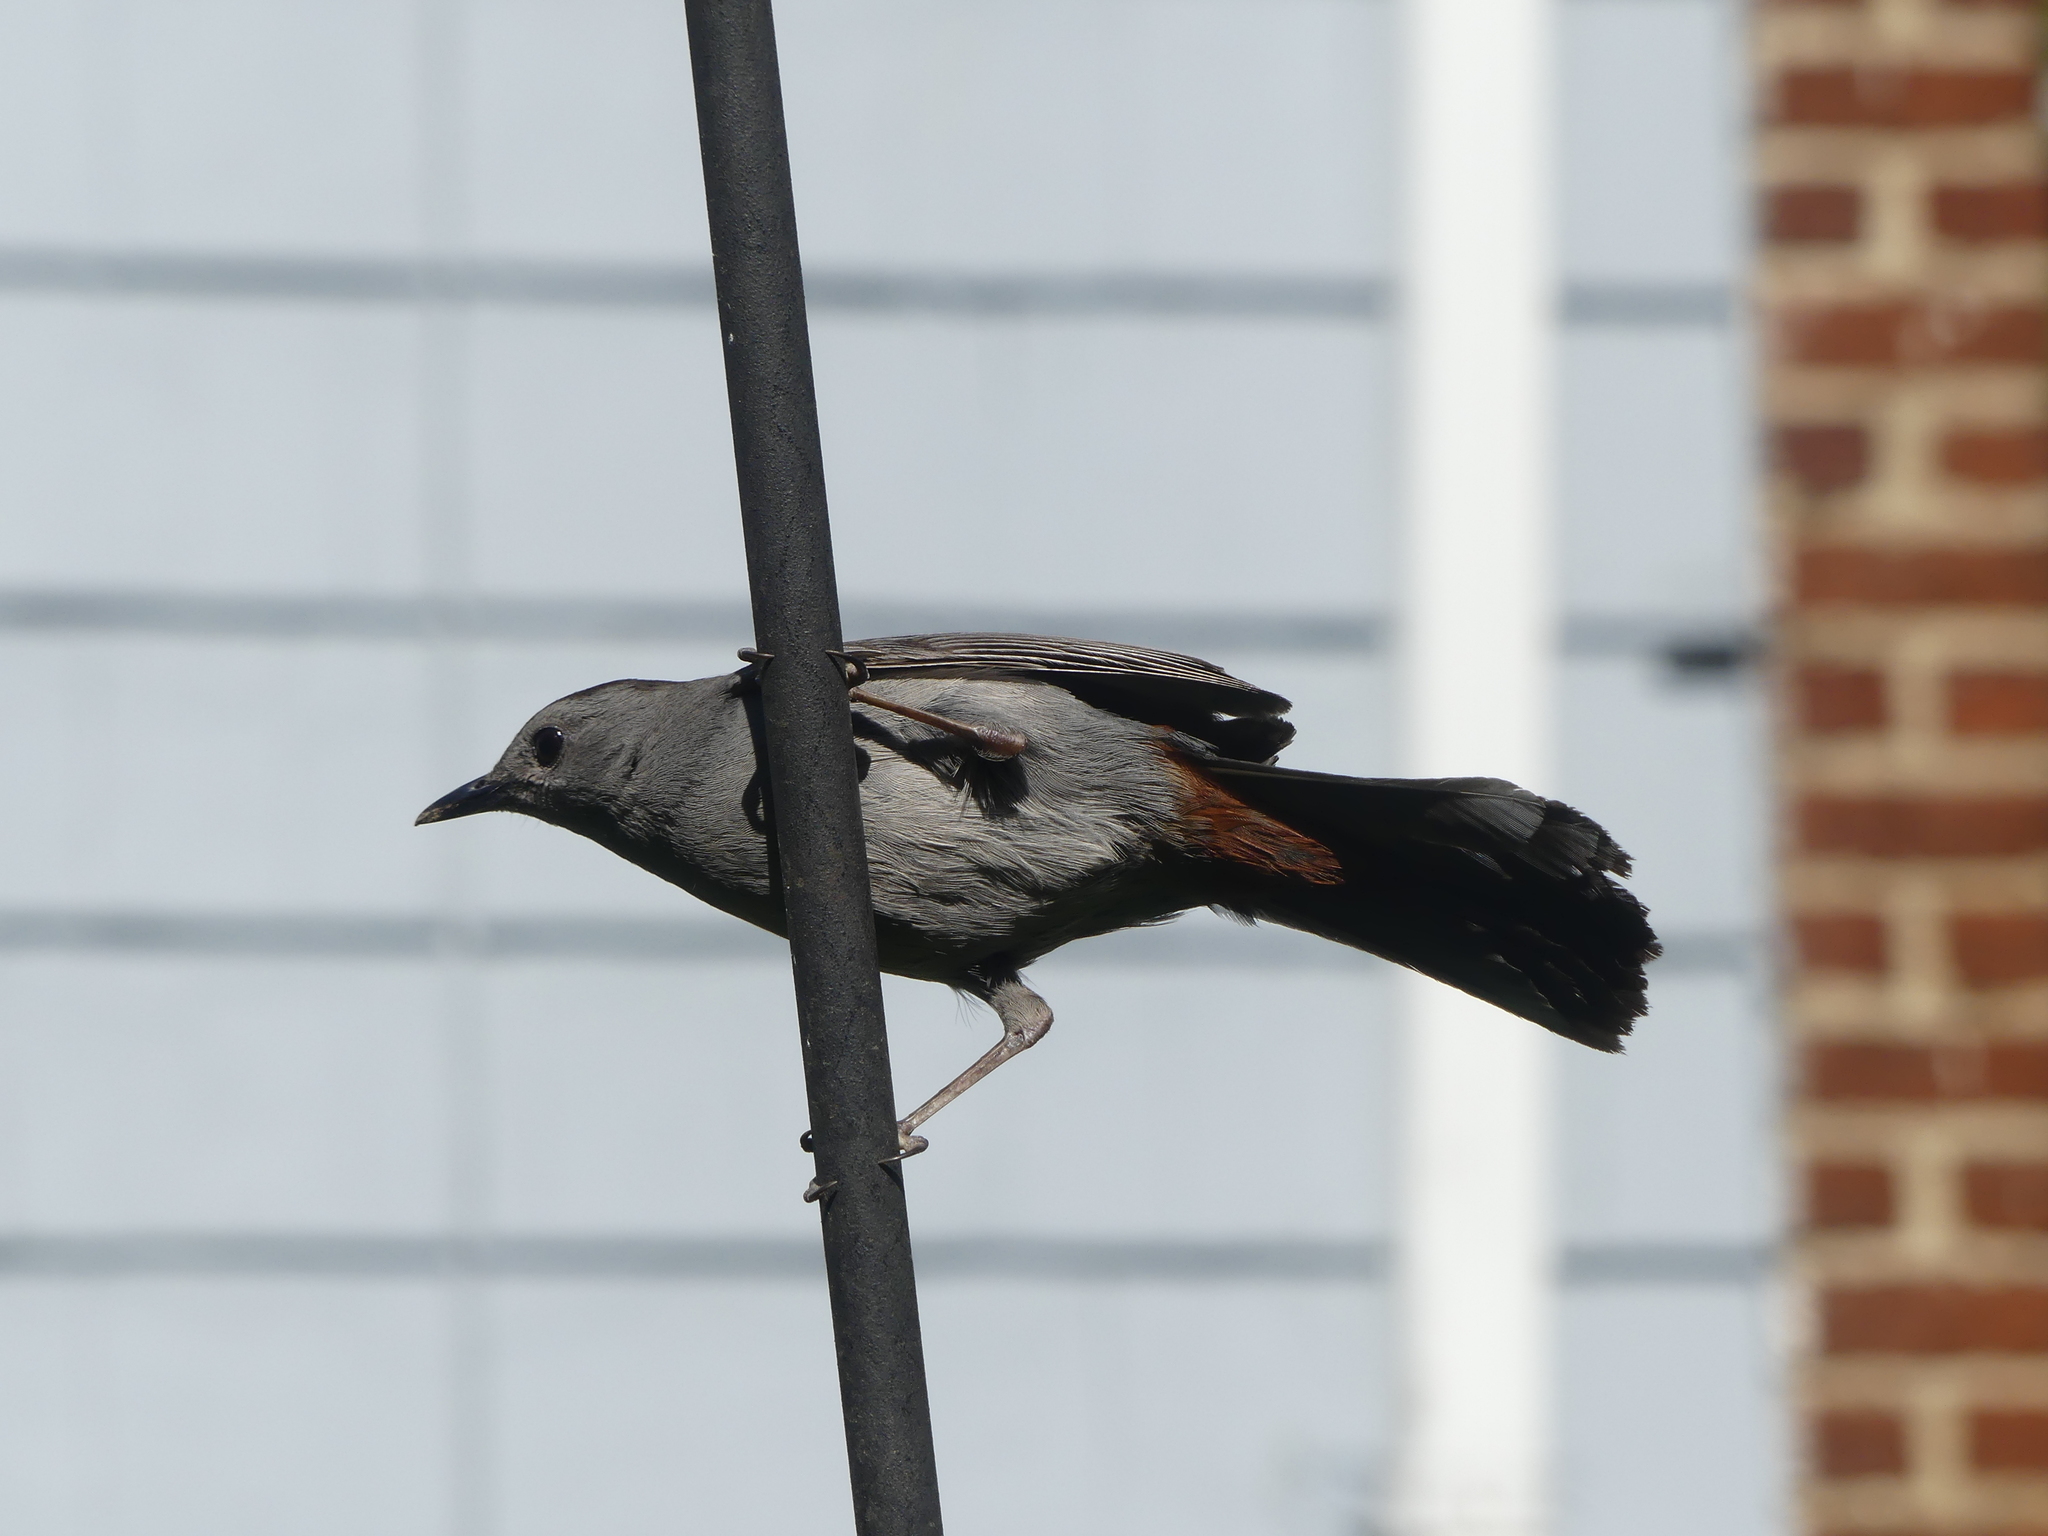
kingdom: Animalia
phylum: Chordata
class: Aves
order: Passeriformes
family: Mimidae
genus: Dumetella
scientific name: Dumetella carolinensis
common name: Gray catbird
